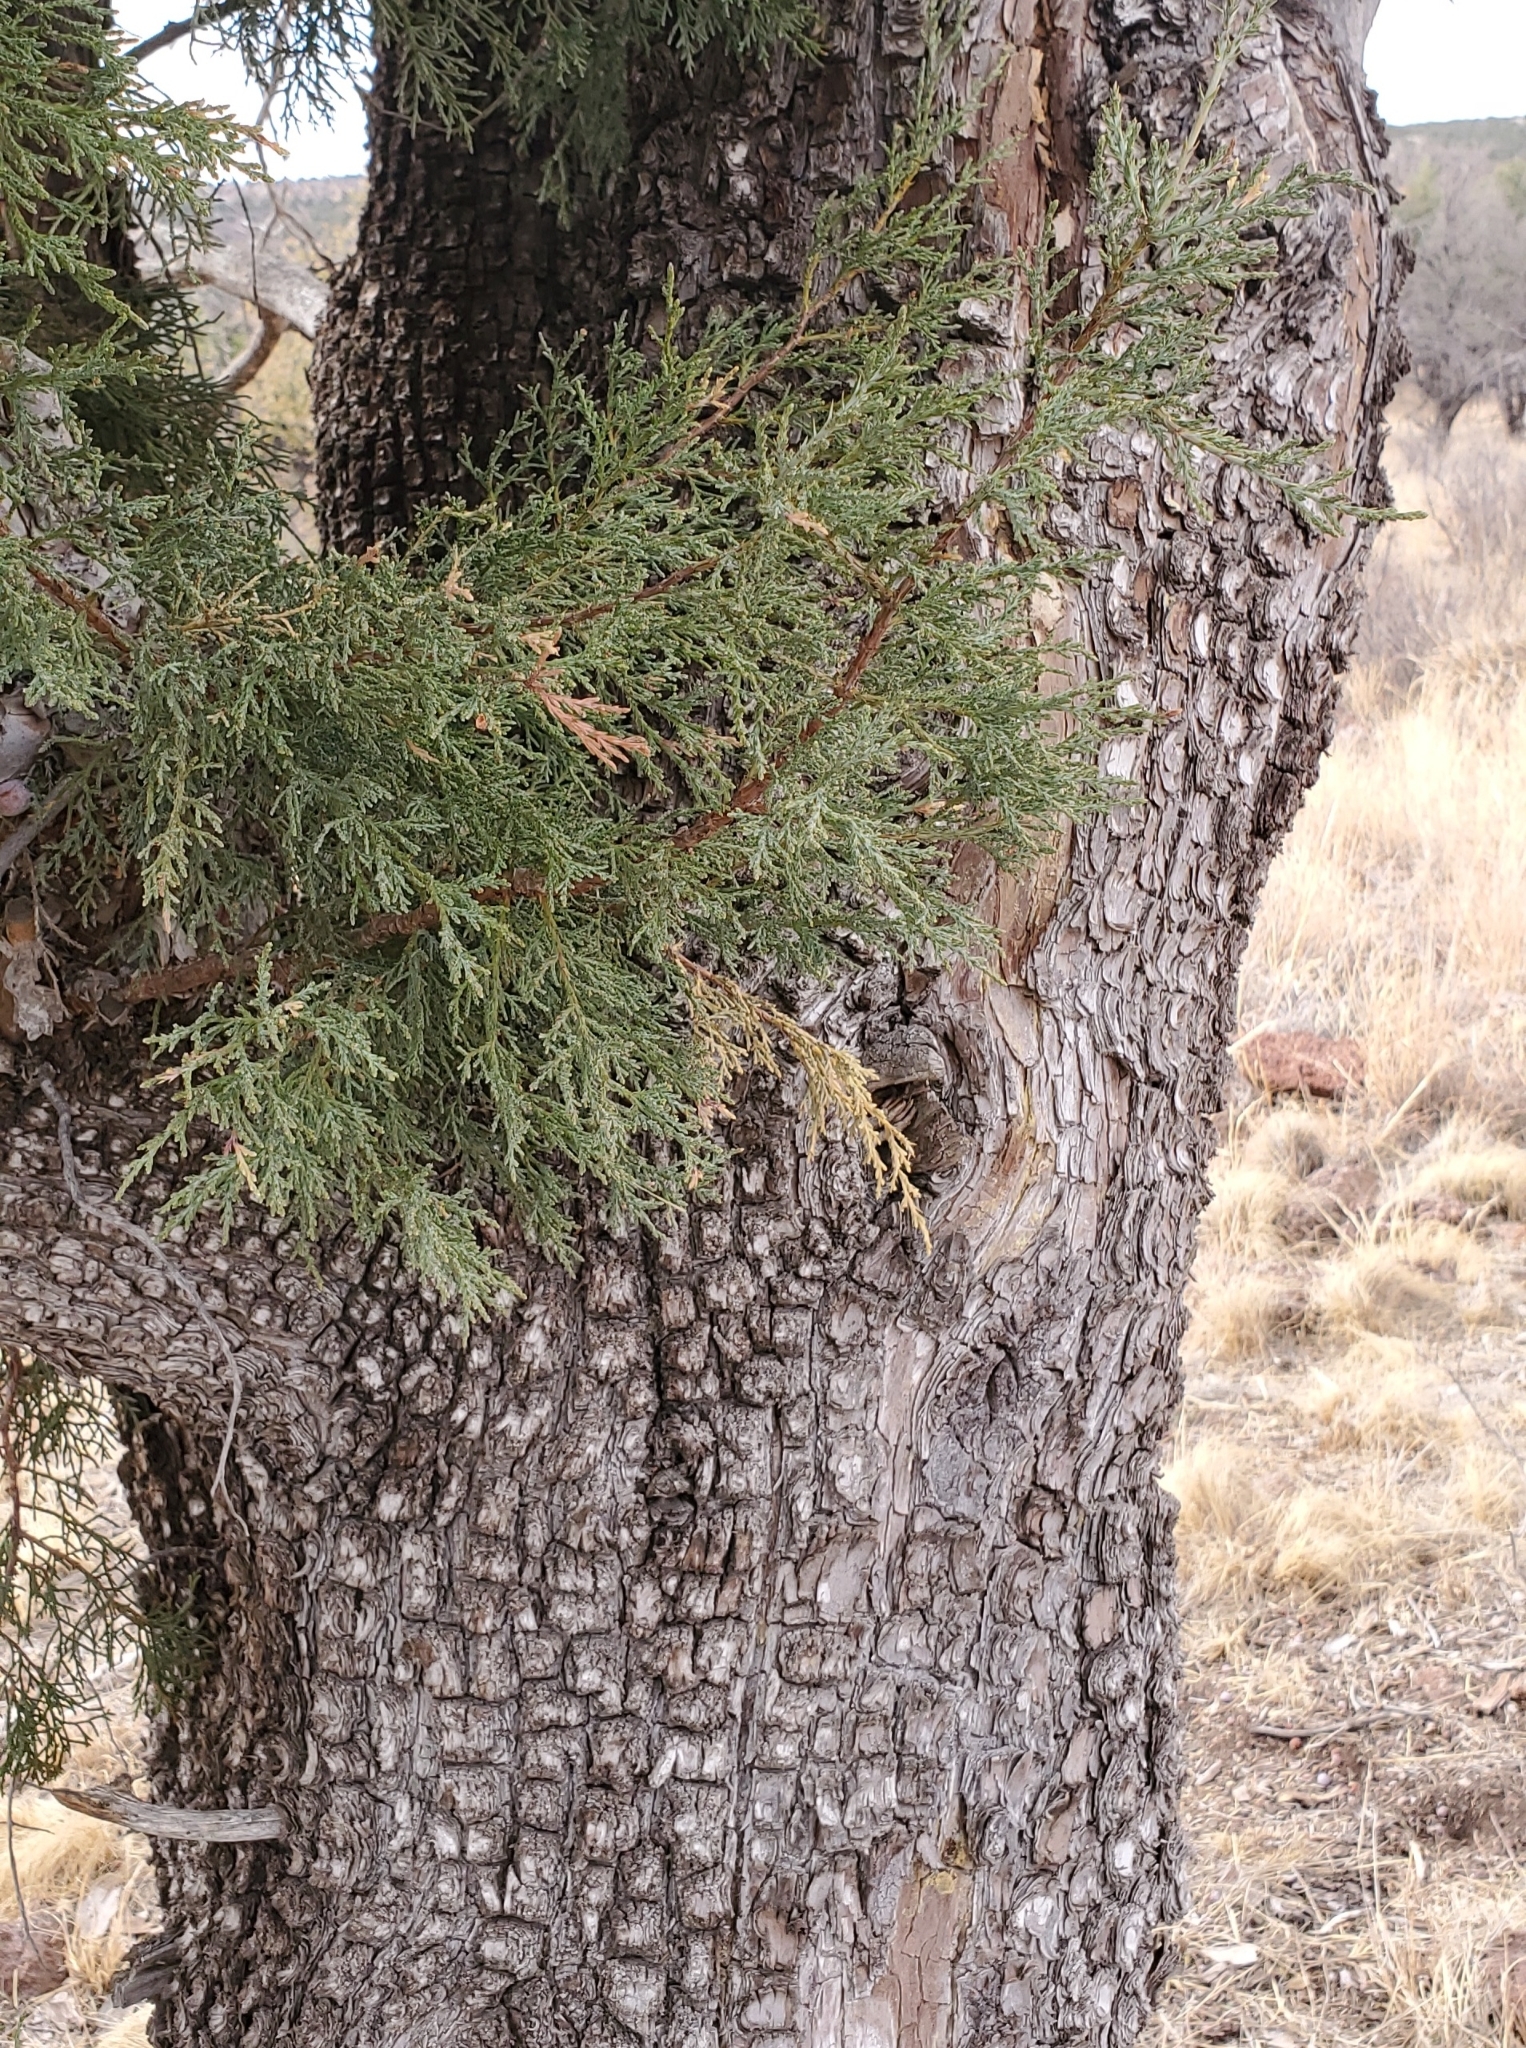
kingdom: Plantae
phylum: Tracheophyta
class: Pinopsida
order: Pinales
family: Cupressaceae
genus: Juniperus
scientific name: Juniperus deppeana
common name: Alligator juniper
